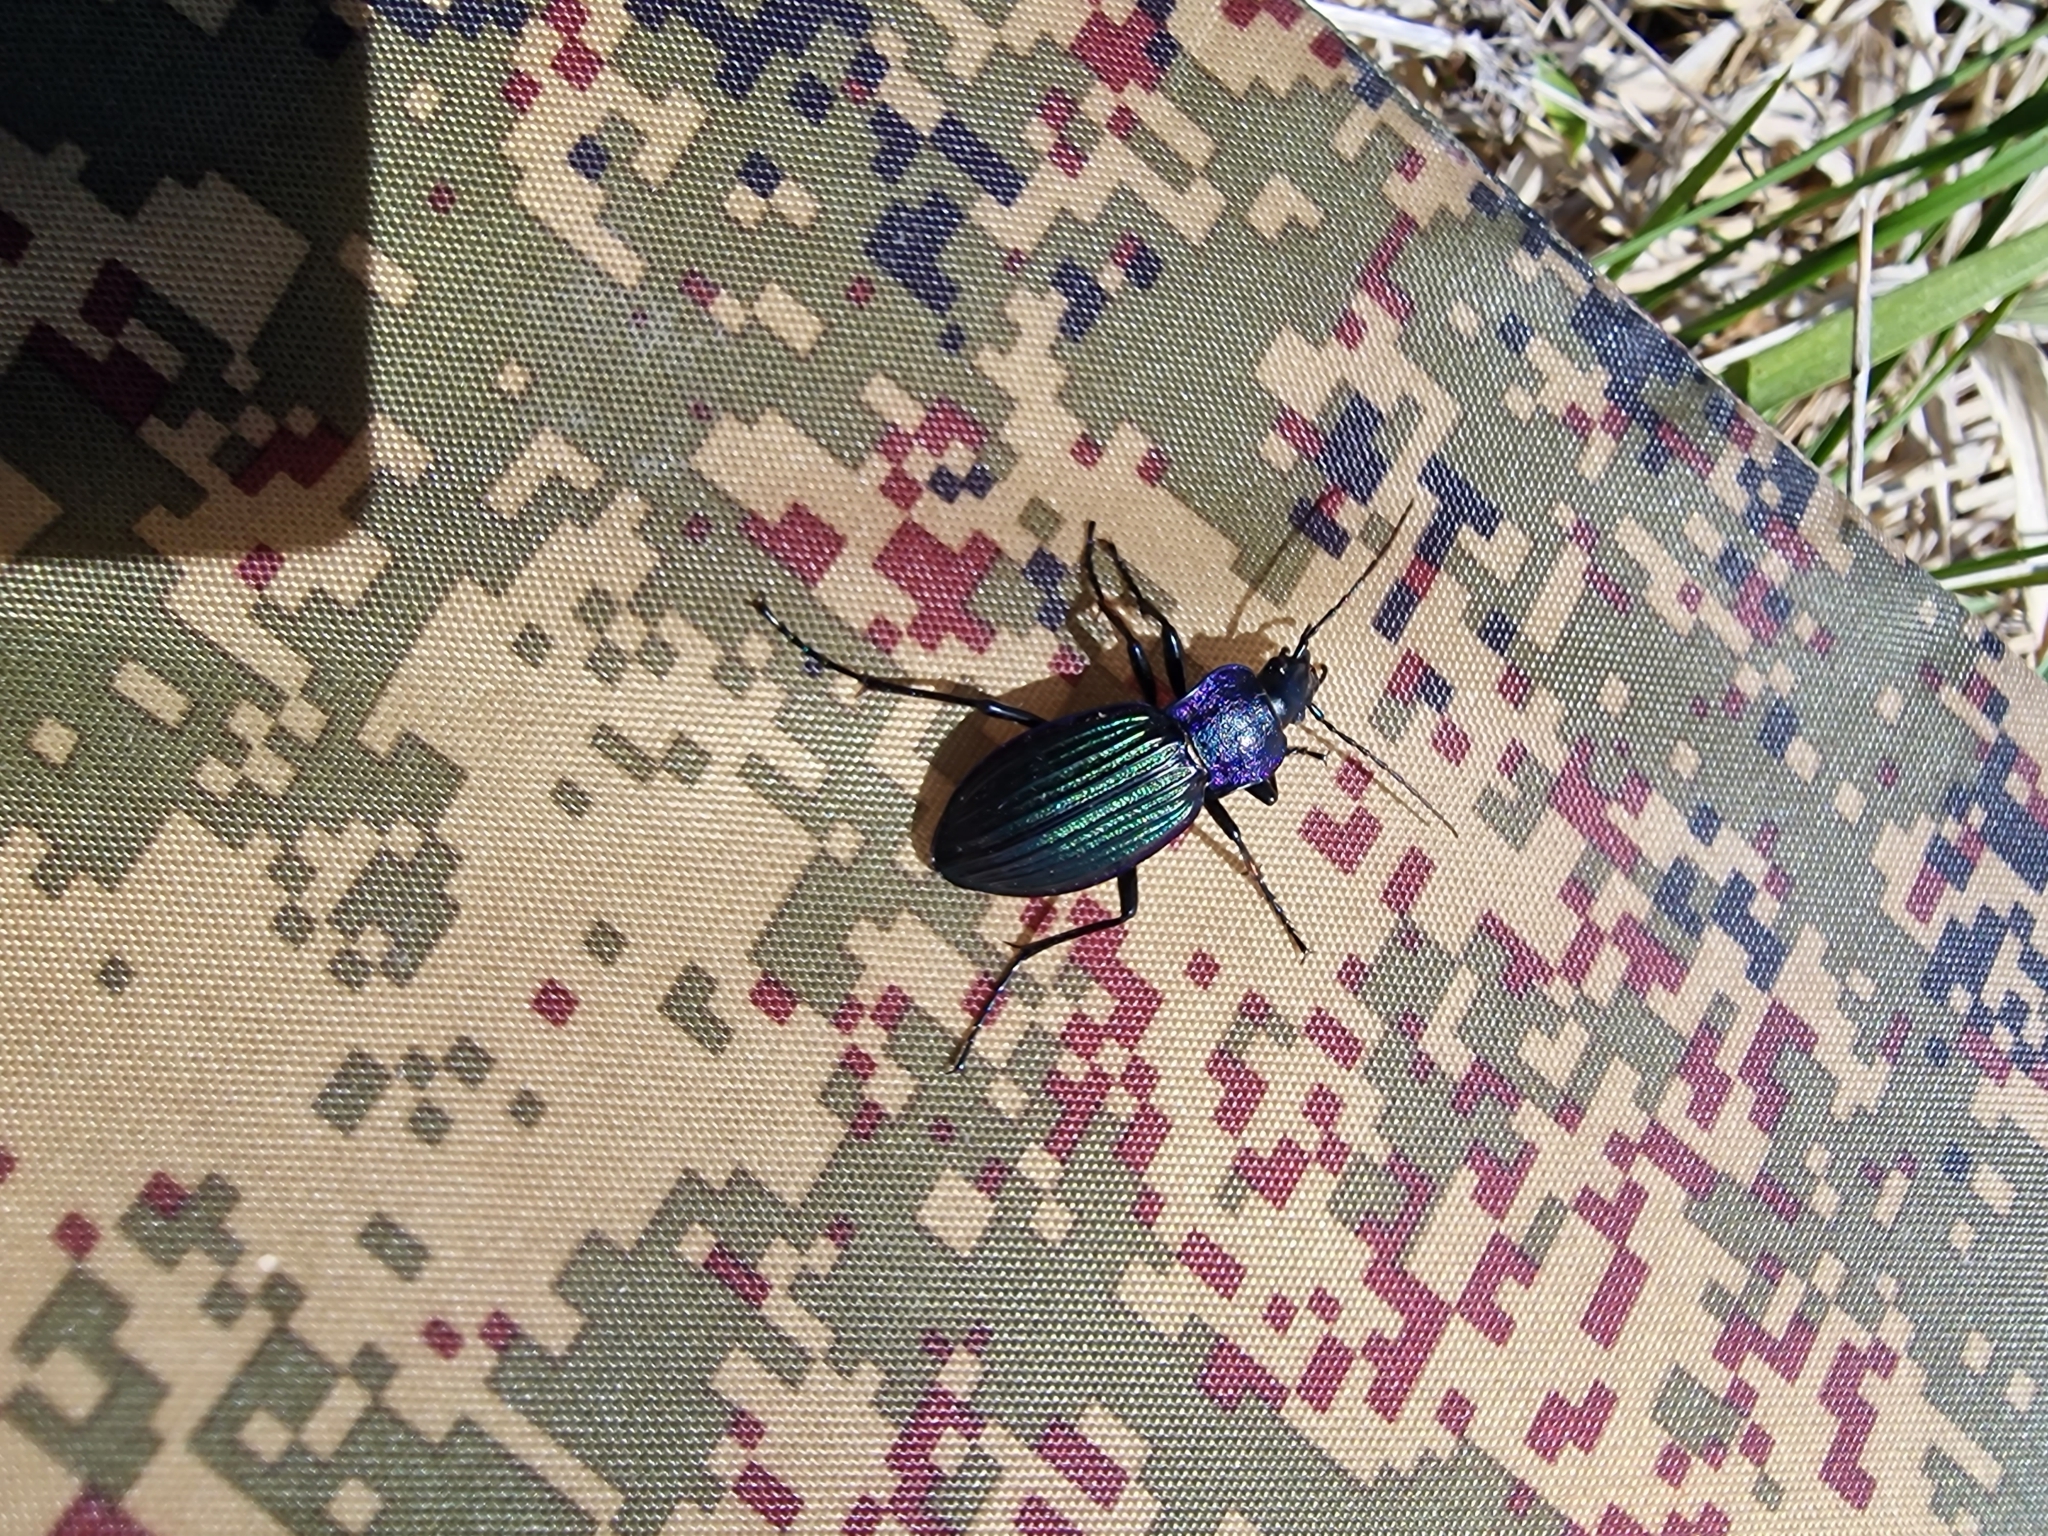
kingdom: Animalia
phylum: Arthropoda
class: Insecta
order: Coleoptera
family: Carabidae
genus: Carabus
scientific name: Carabus exaratus
